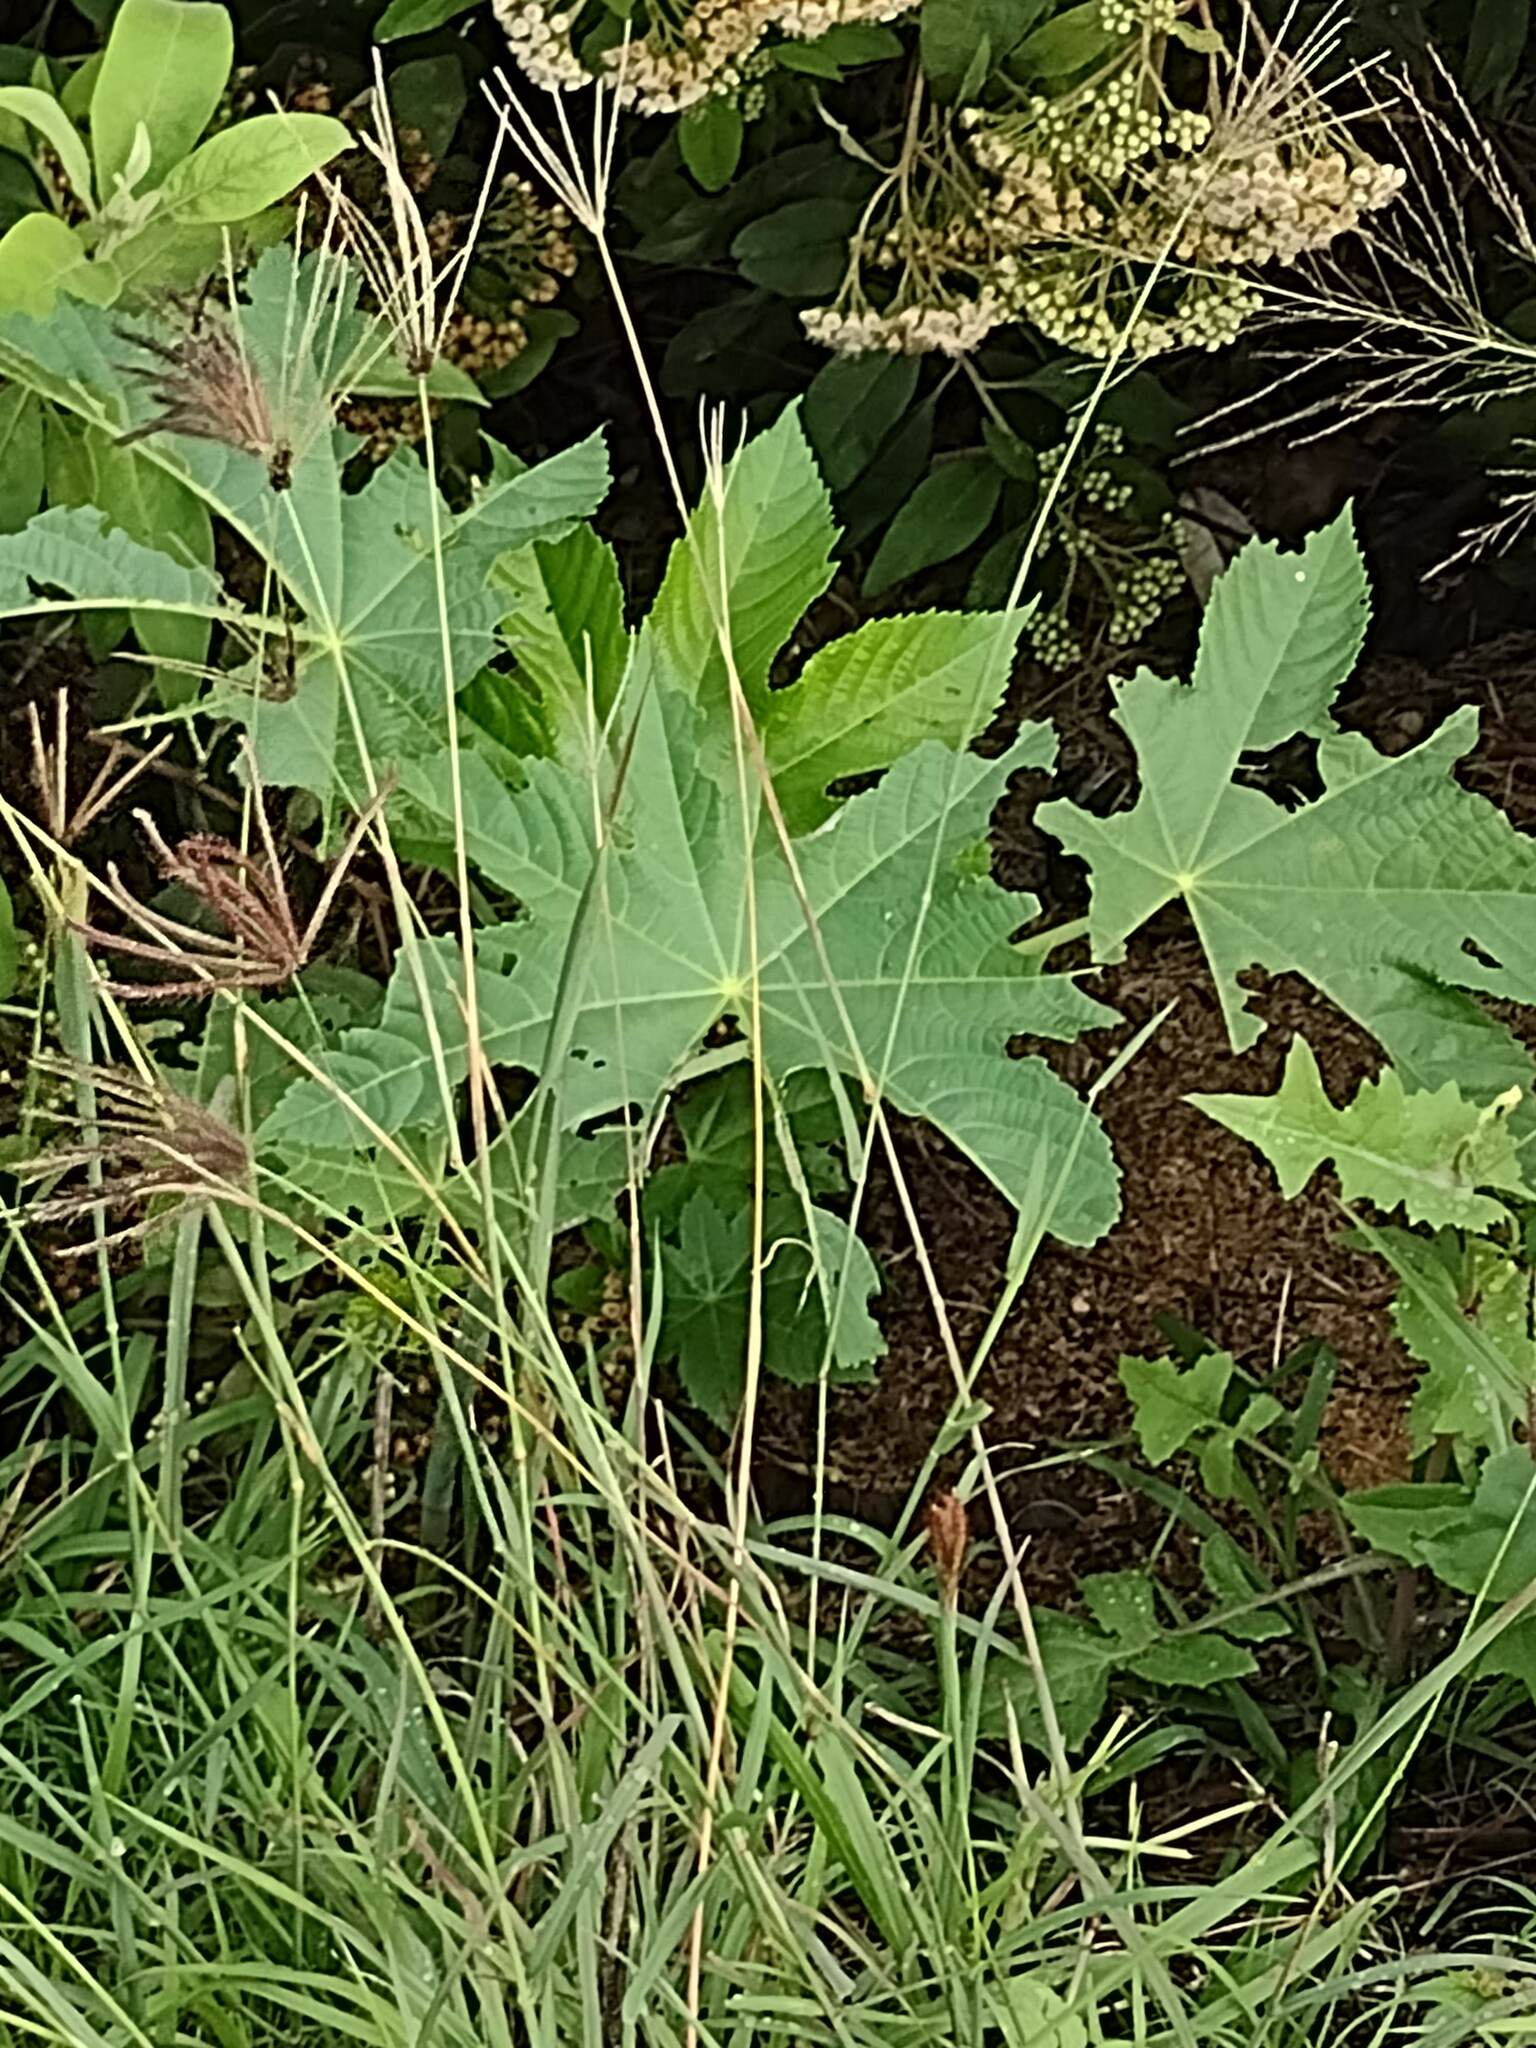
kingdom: Plantae
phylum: Tracheophyta
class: Magnoliopsida
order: Malpighiales
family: Euphorbiaceae
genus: Ricinus
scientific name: Ricinus communis
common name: Castor-oil-plant
